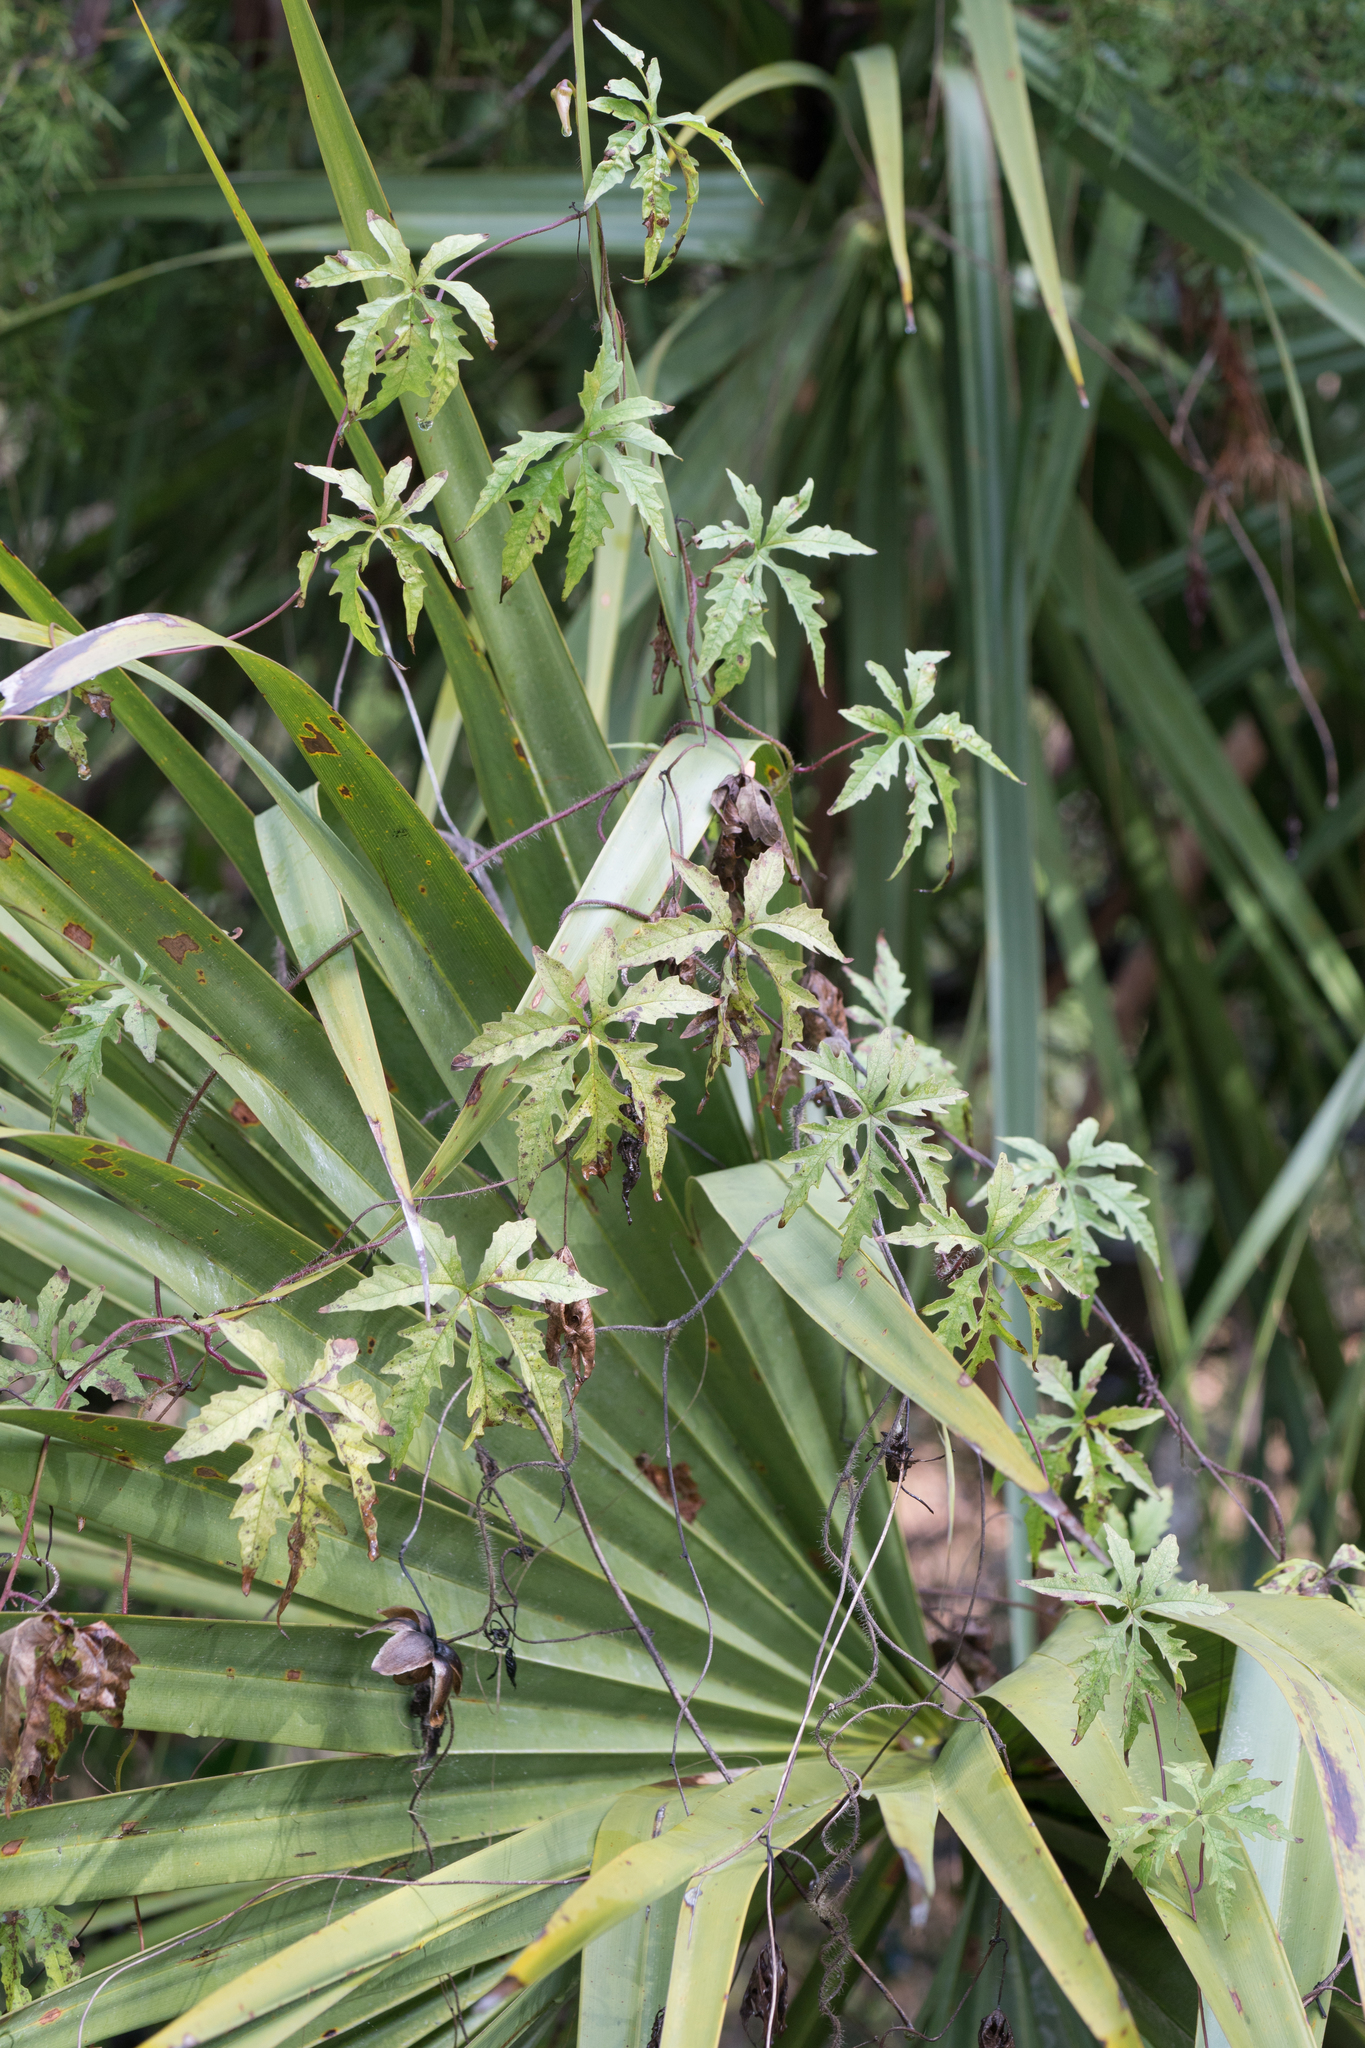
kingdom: Plantae
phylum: Tracheophyta
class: Magnoliopsida
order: Solanales
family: Convolvulaceae
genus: Distimake
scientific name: Distimake dissectus
